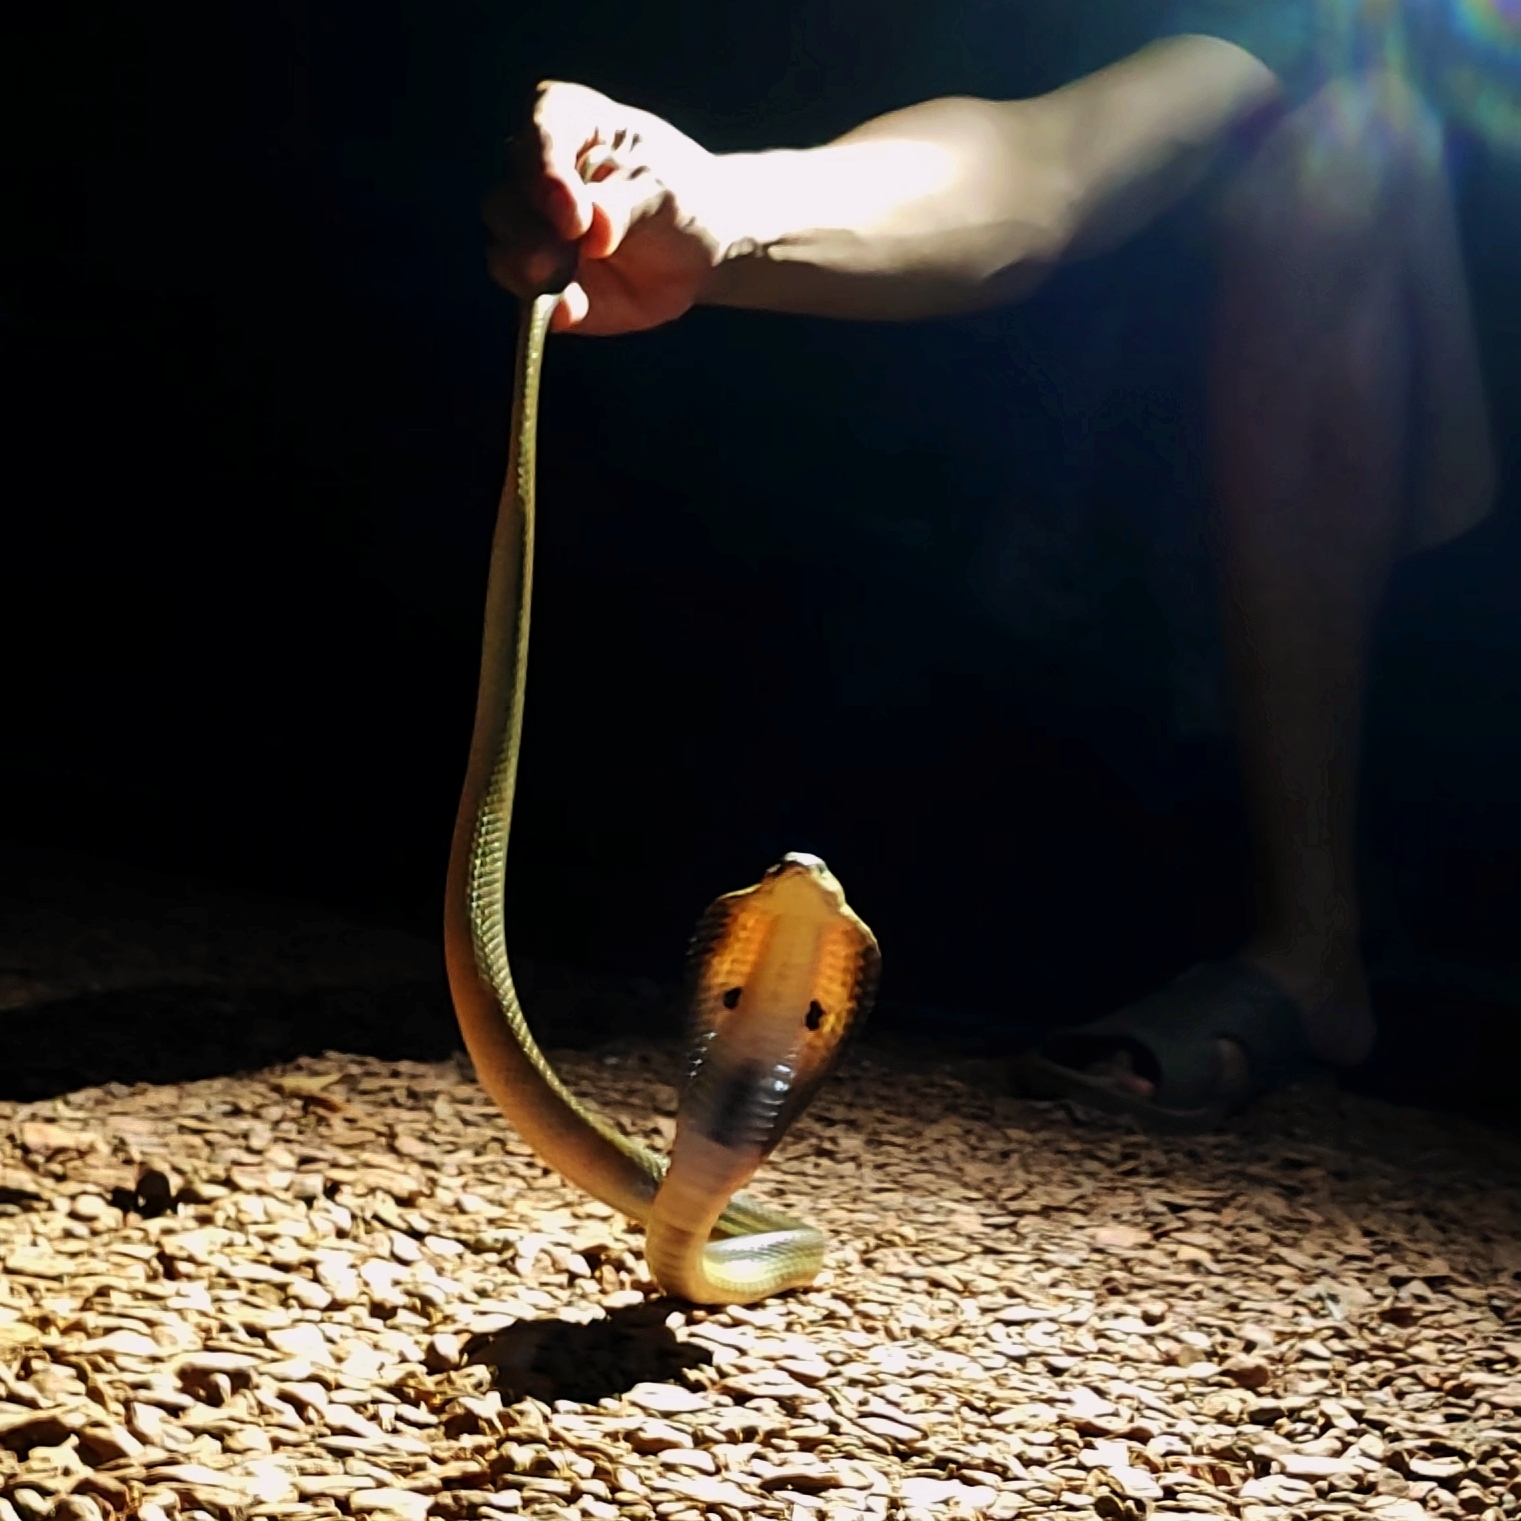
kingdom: Animalia
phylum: Chordata
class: Squamata
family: Elapidae
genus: Naja
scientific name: Naja siamensis
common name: Indo-chinese spitting cobra
